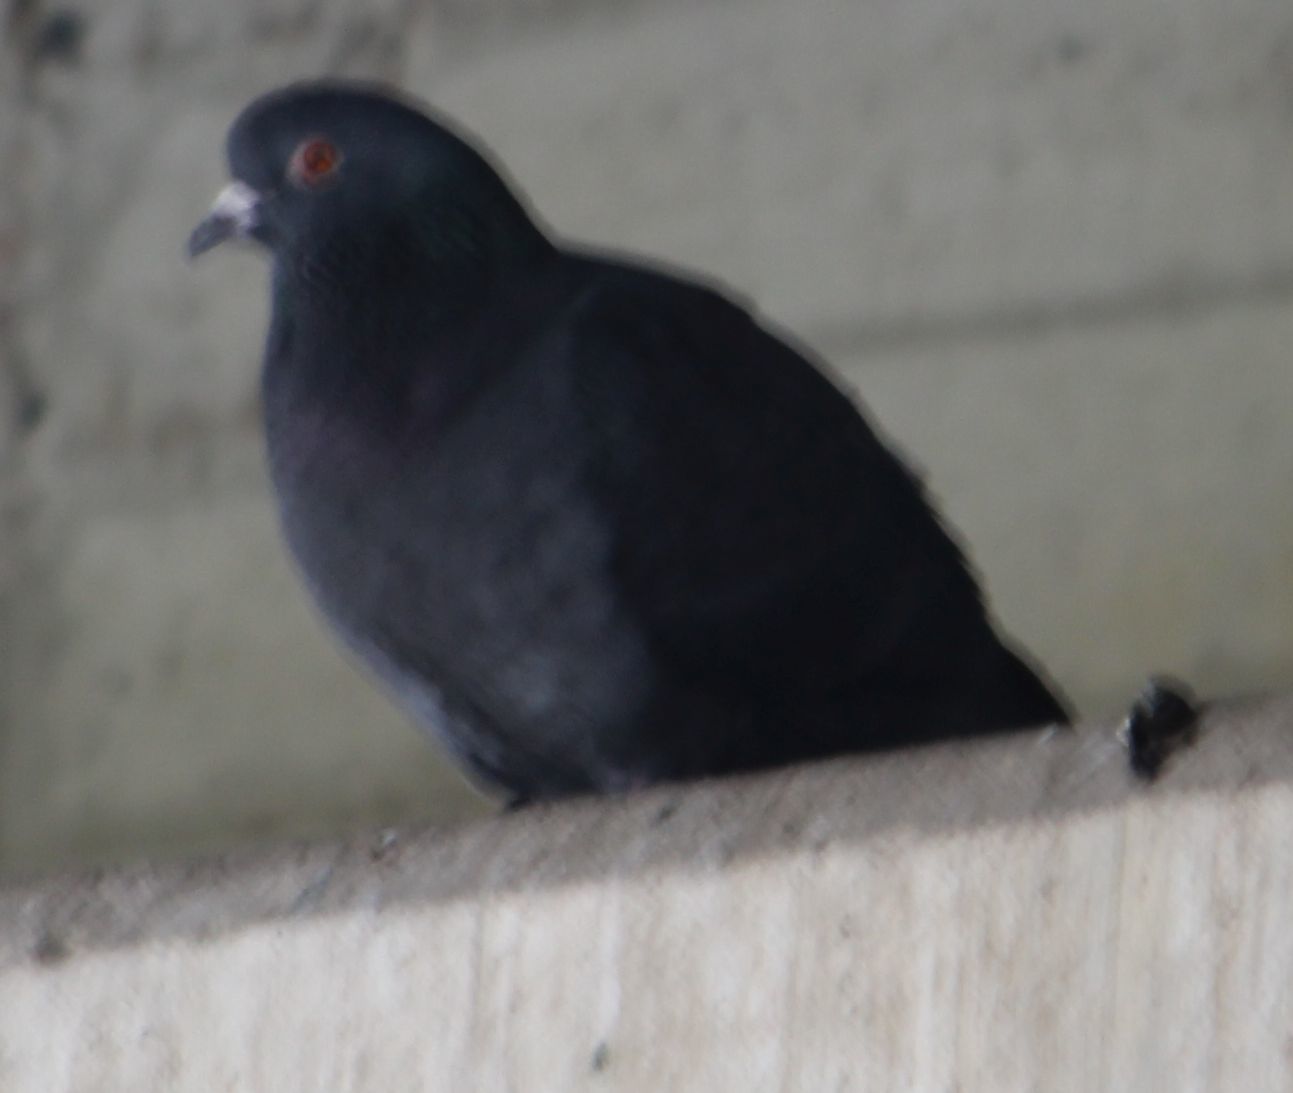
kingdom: Animalia
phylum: Chordata
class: Aves
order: Columbiformes
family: Columbidae
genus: Columba
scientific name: Columba livia
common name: Rock pigeon
